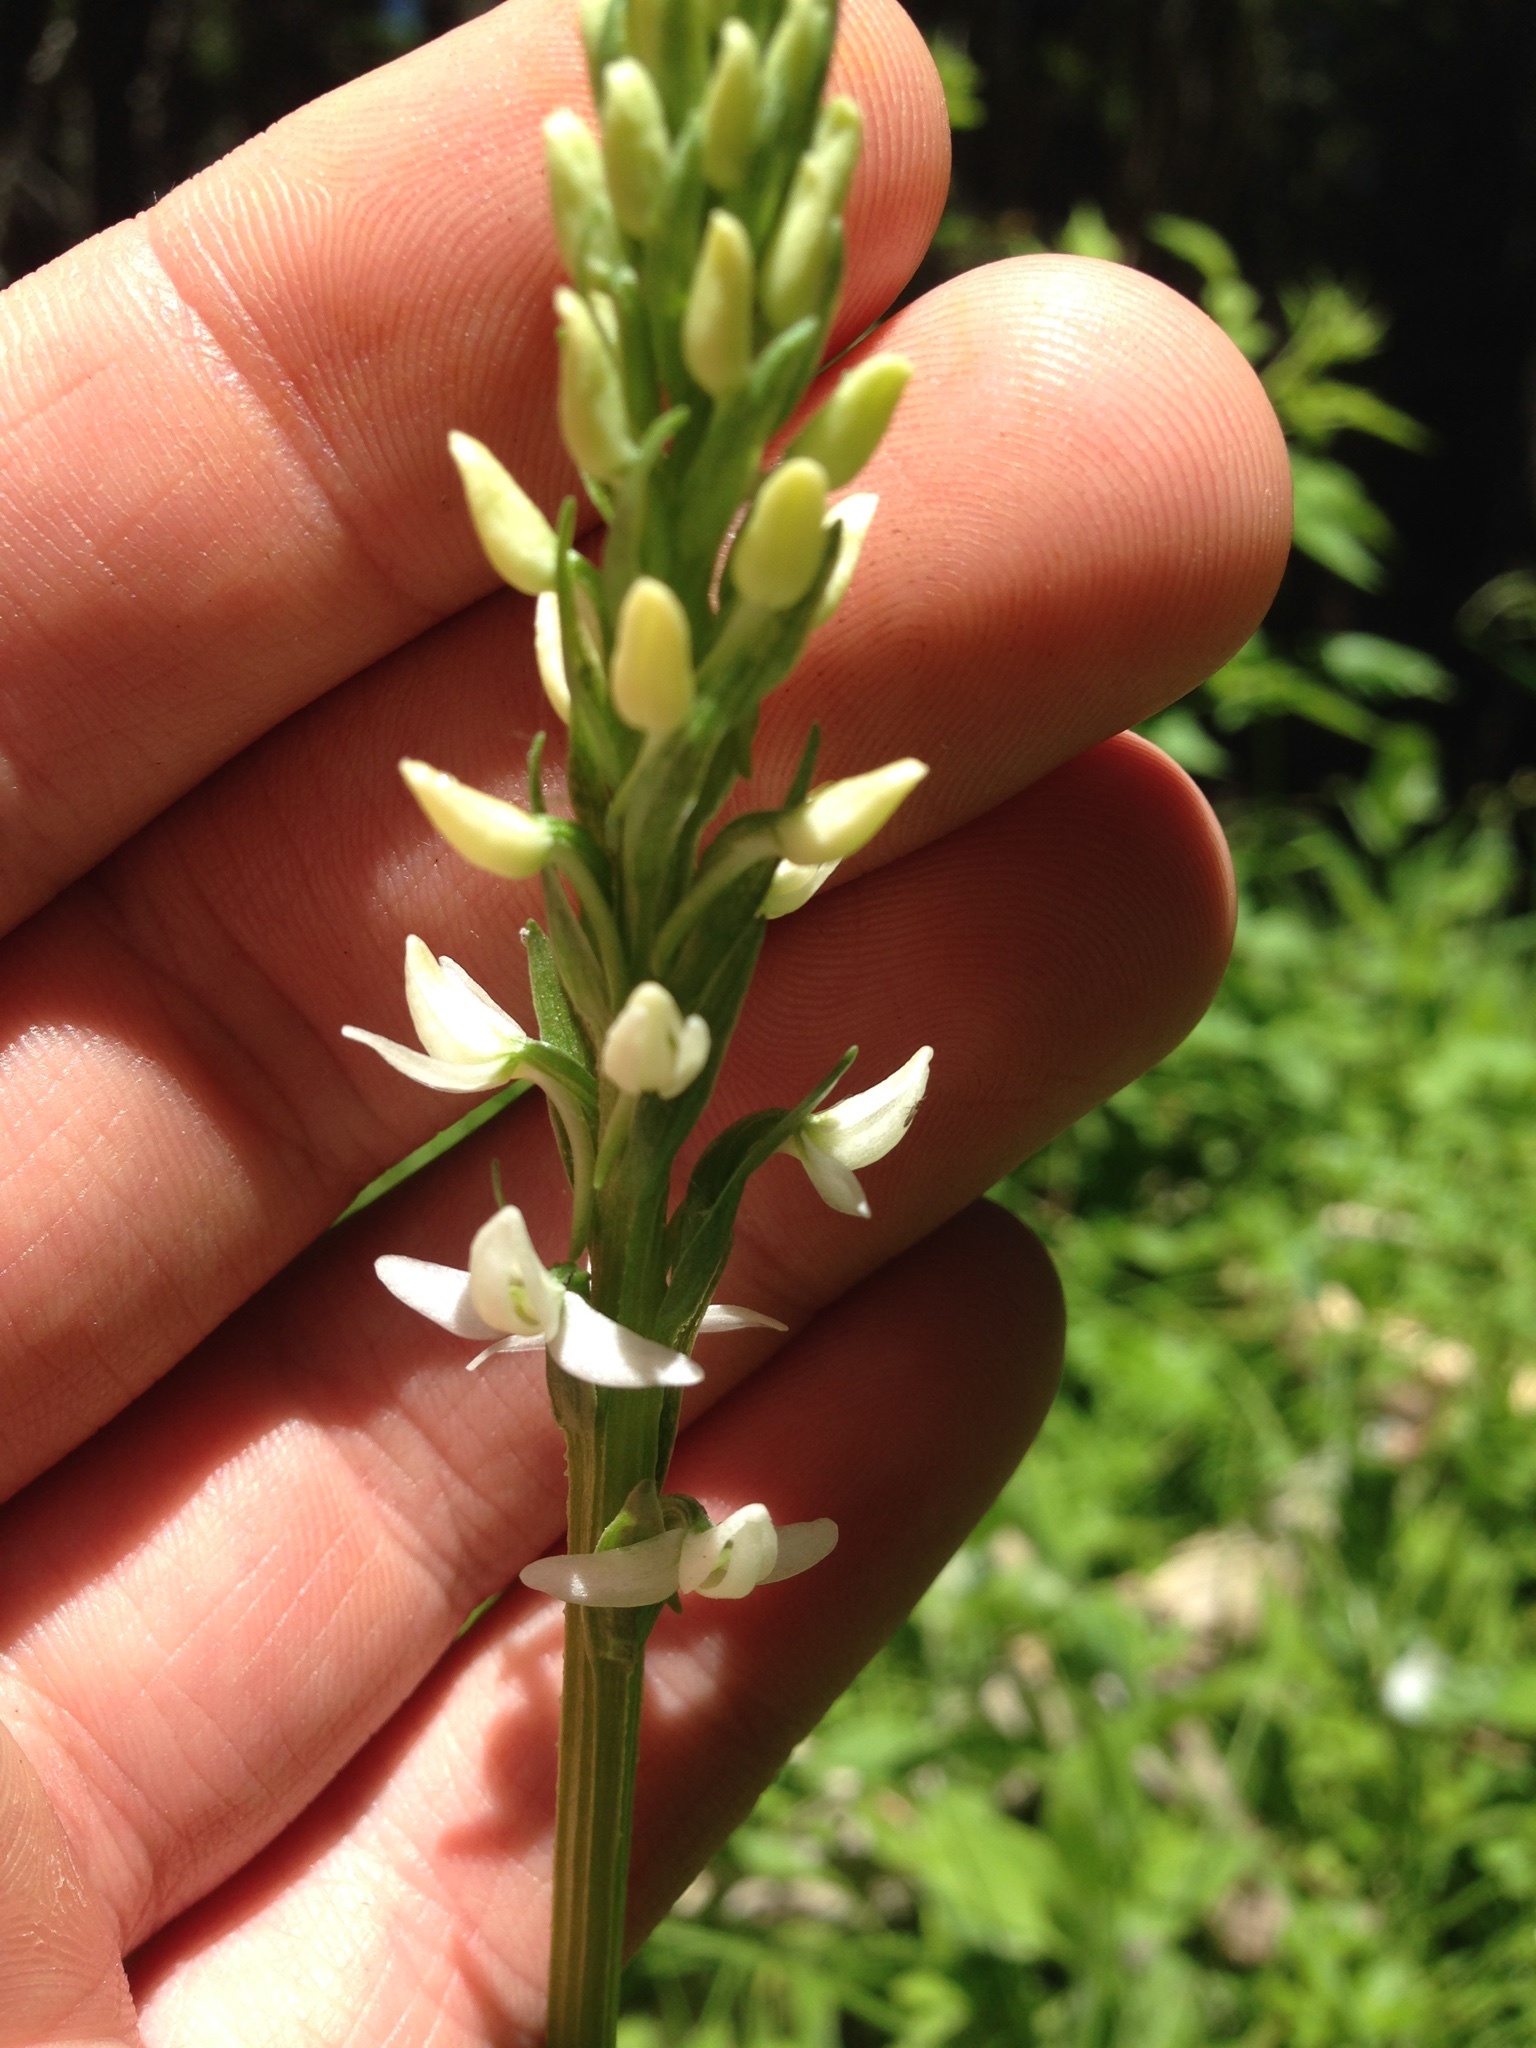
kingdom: Plantae
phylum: Tracheophyta
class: Liliopsida
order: Asparagales
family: Orchidaceae
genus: Platanthera
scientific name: Platanthera dilatata
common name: Bog candles
